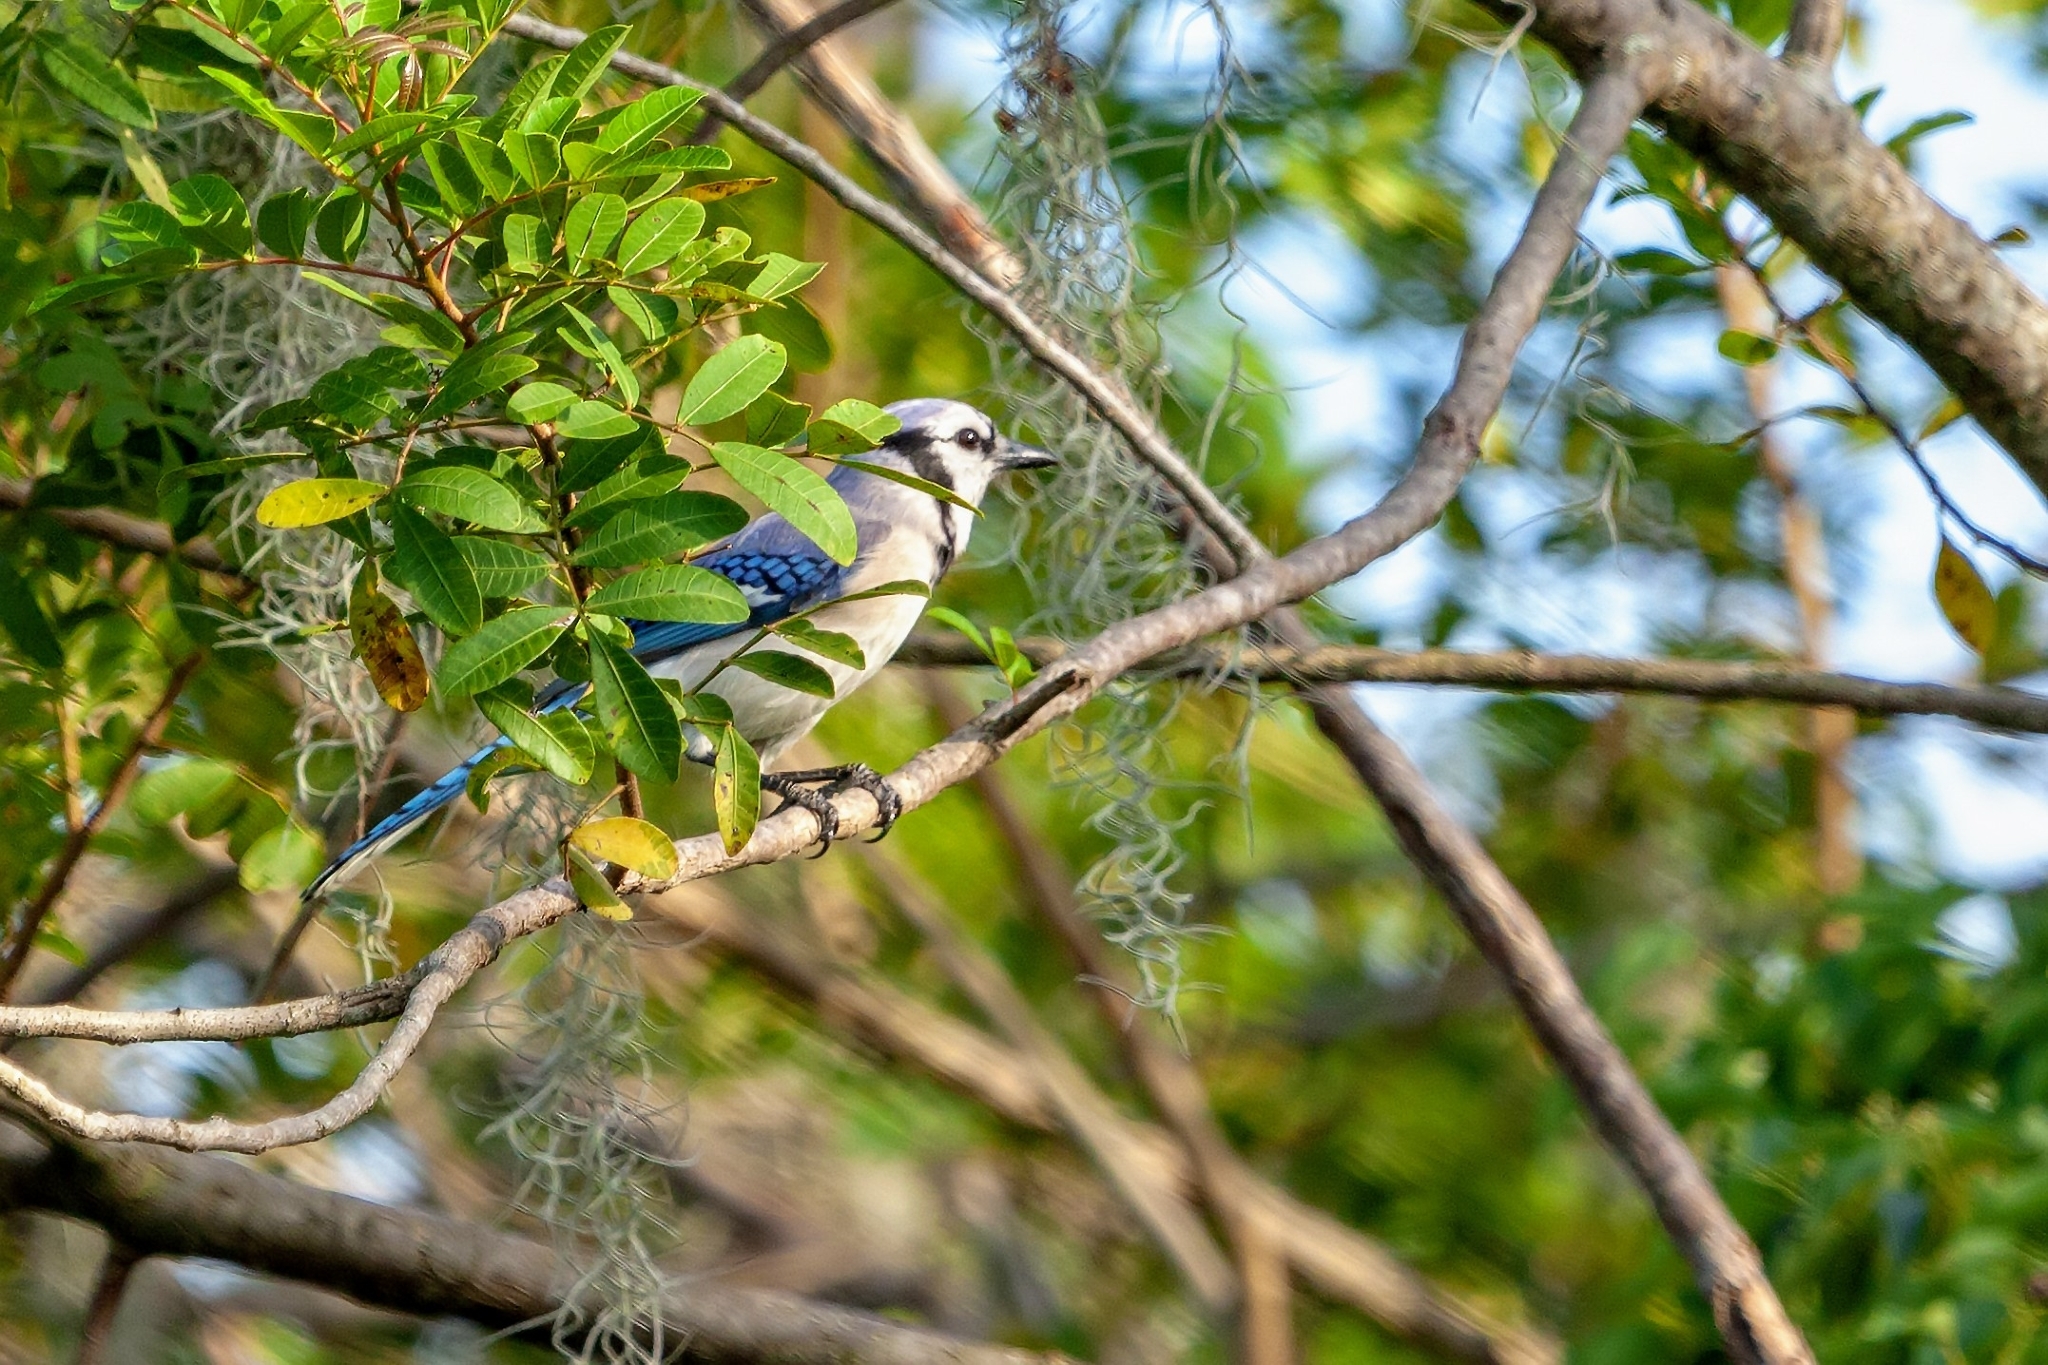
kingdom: Animalia
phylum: Chordata
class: Aves
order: Passeriformes
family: Corvidae
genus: Cyanocitta
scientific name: Cyanocitta cristata
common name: Blue jay
